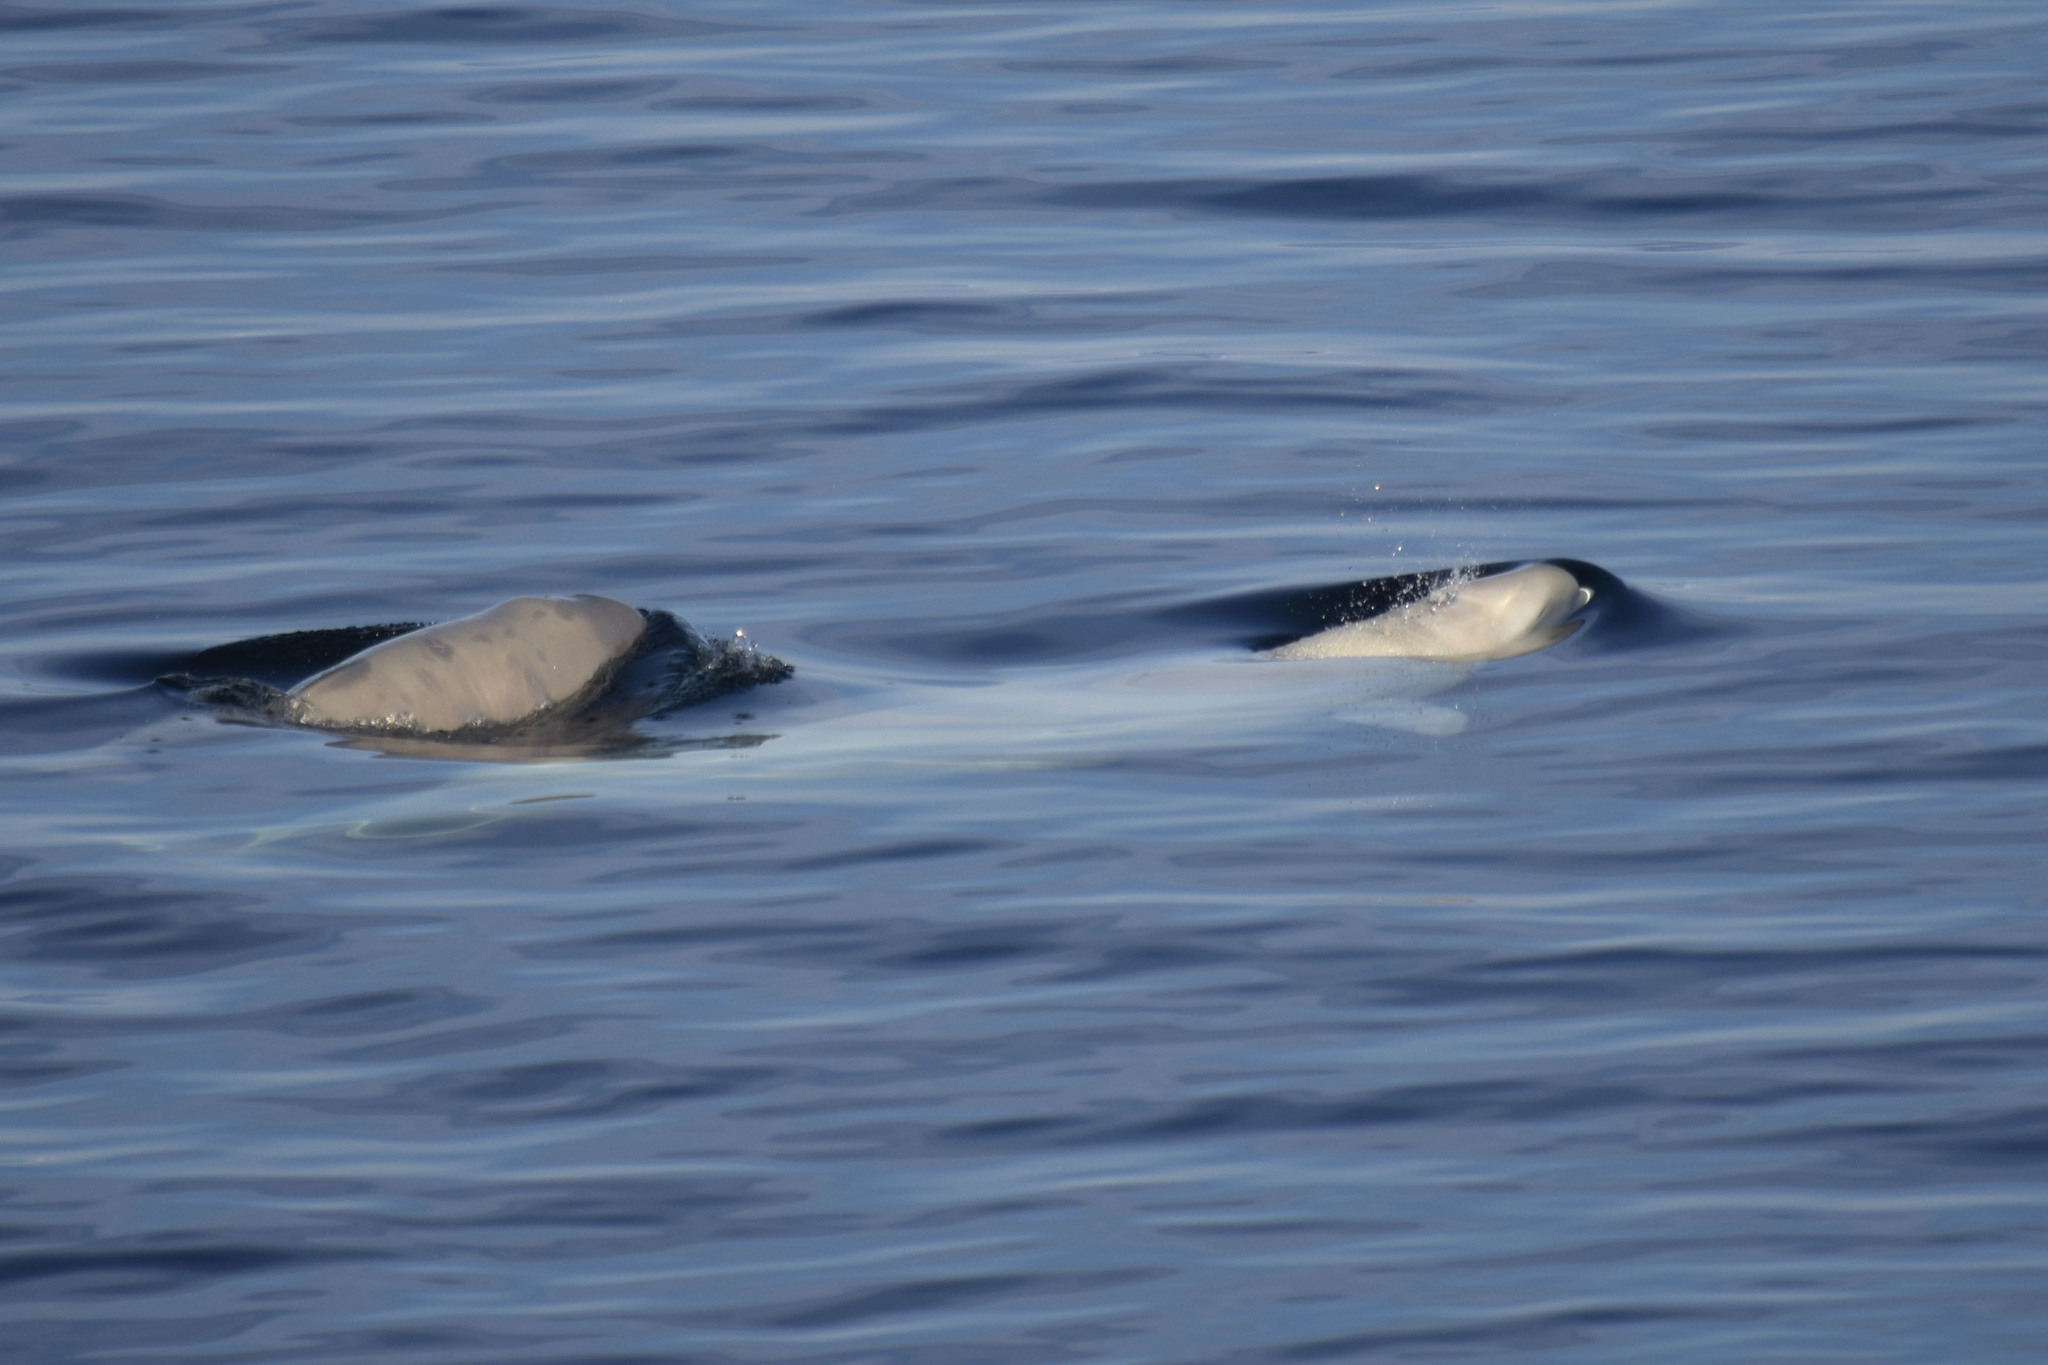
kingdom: Animalia
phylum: Chordata
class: Mammalia
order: Cetacea
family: Monodontidae
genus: Delphinapterus
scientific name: Delphinapterus leucas
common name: Beluga
